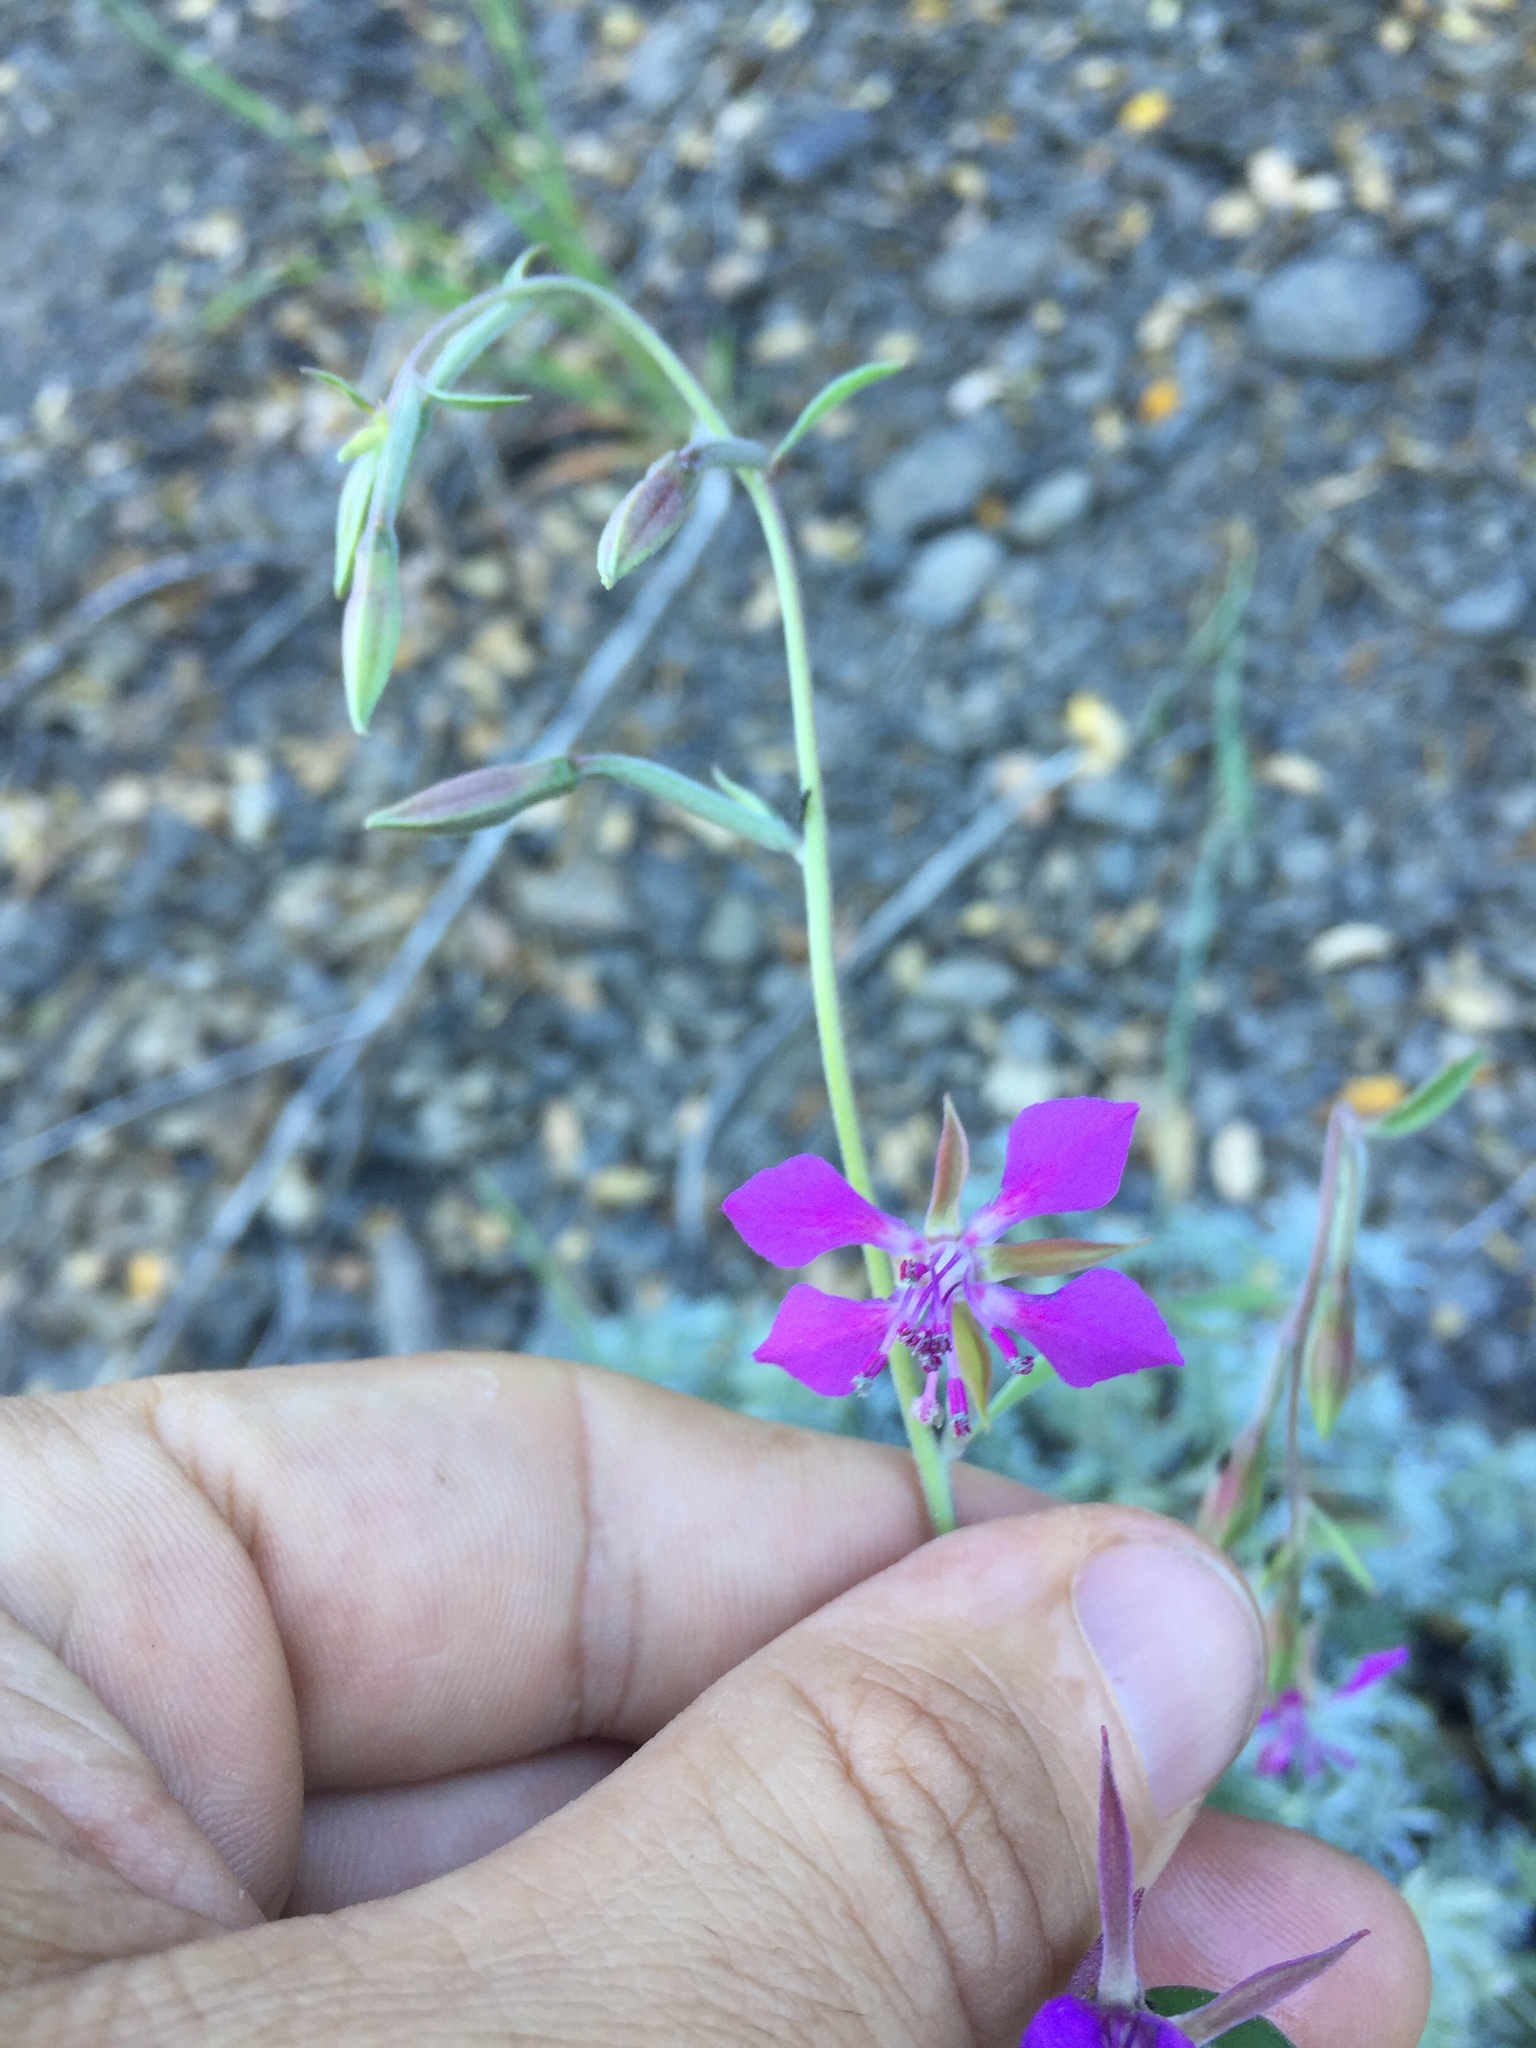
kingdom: Plantae
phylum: Tracheophyta
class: Magnoliopsida
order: Myrtales
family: Onagraceae
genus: Clarkia
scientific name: Clarkia rhomboidea
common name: Broadleaf clarkia
